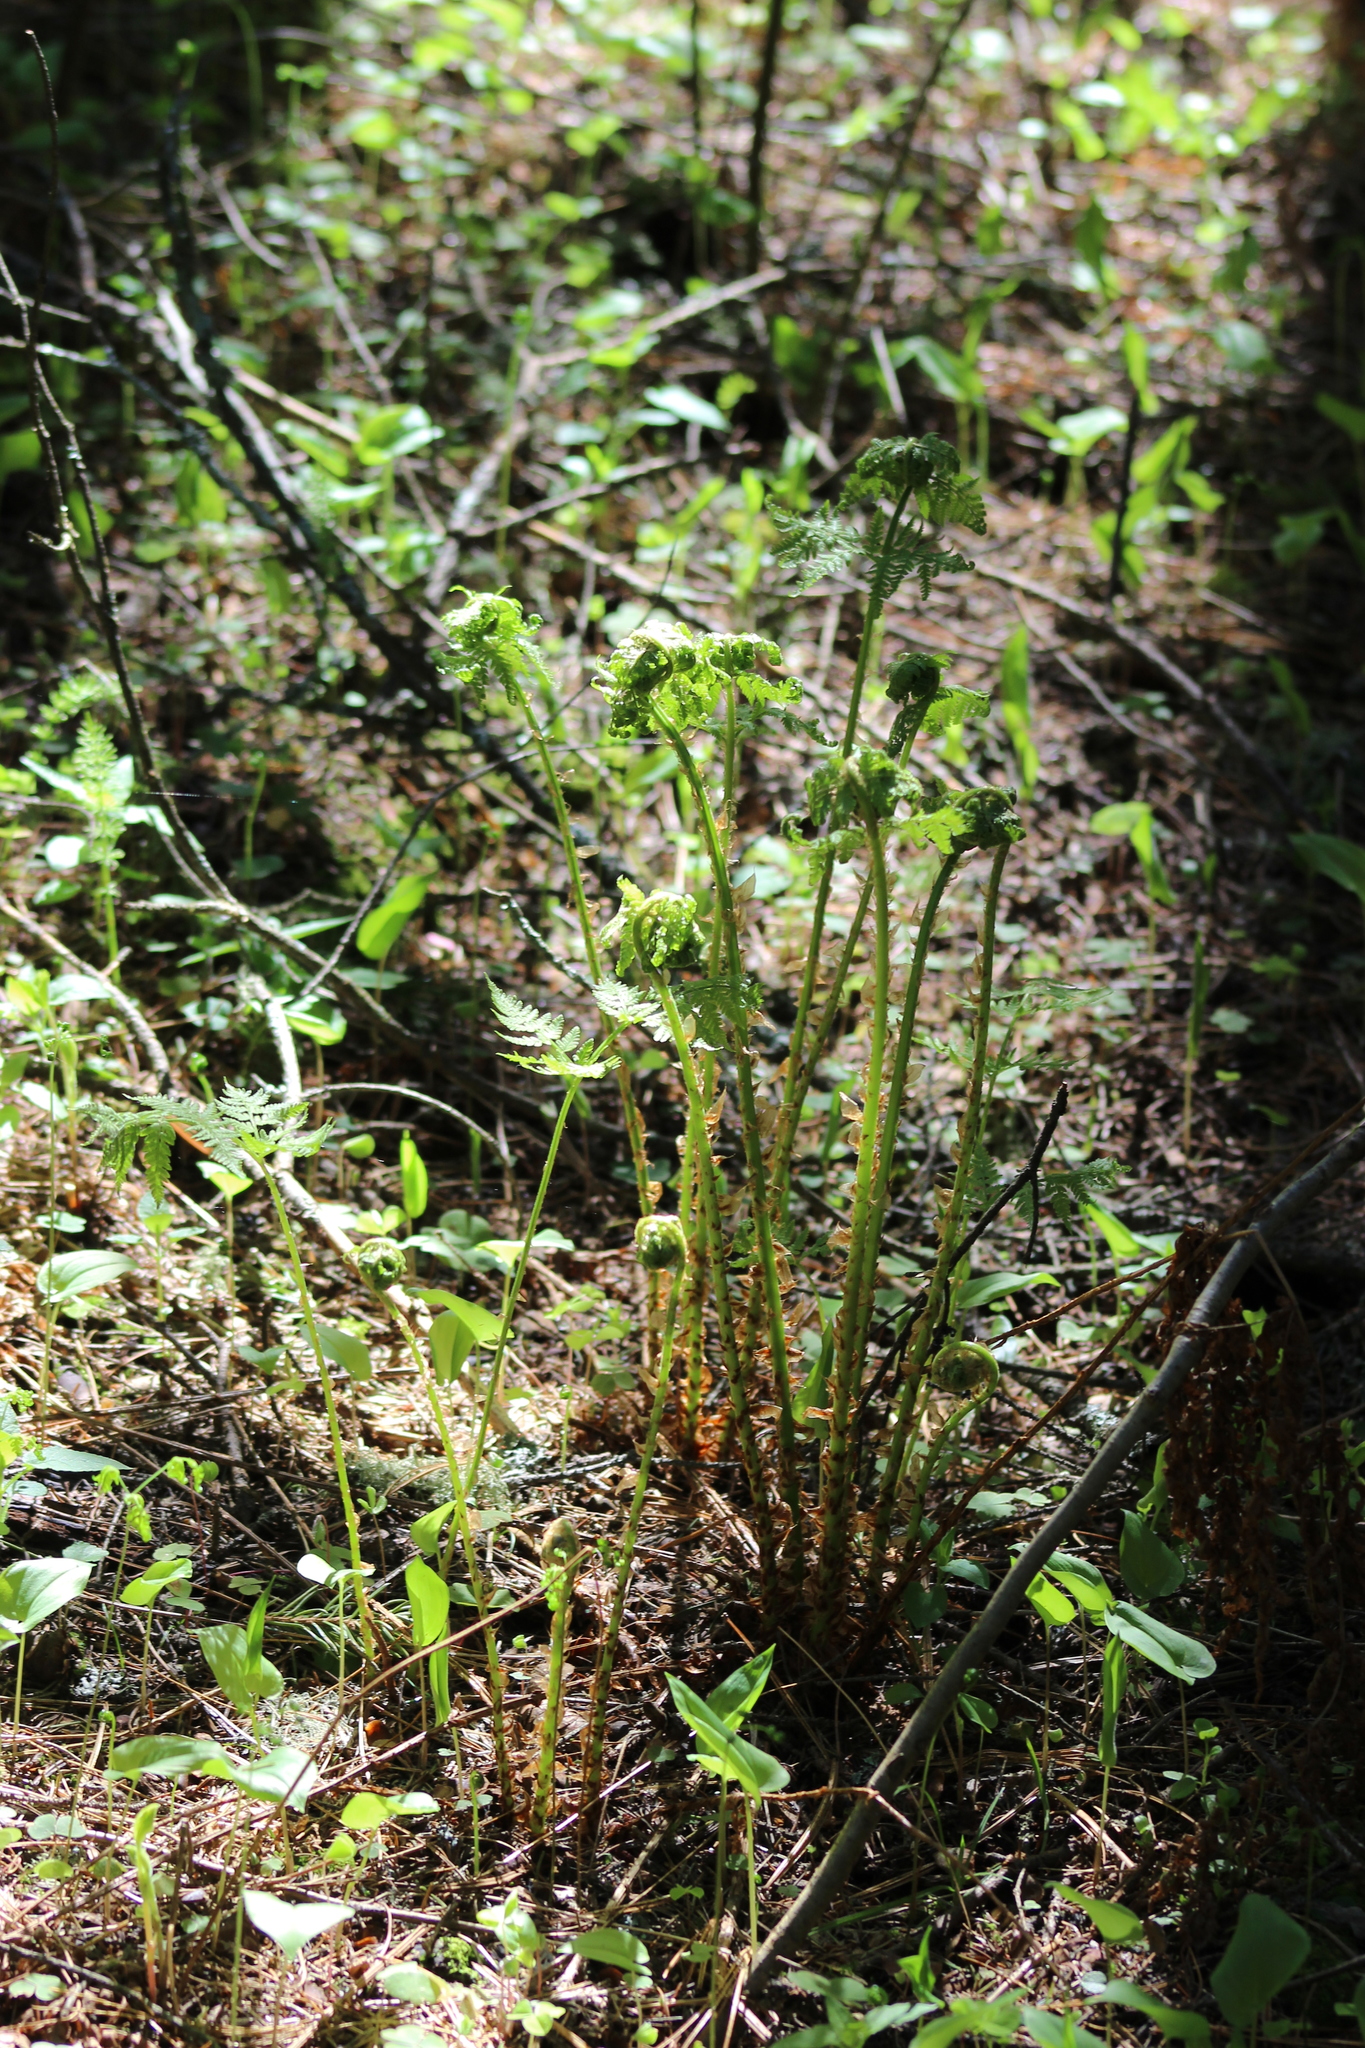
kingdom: Plantae
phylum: Tracheophyta
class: Polypodiopsida
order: Polypodiales
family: Dryopteridaceae
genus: Dryopteris
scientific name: Dryopteris expansa
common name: Northern buckler fern
